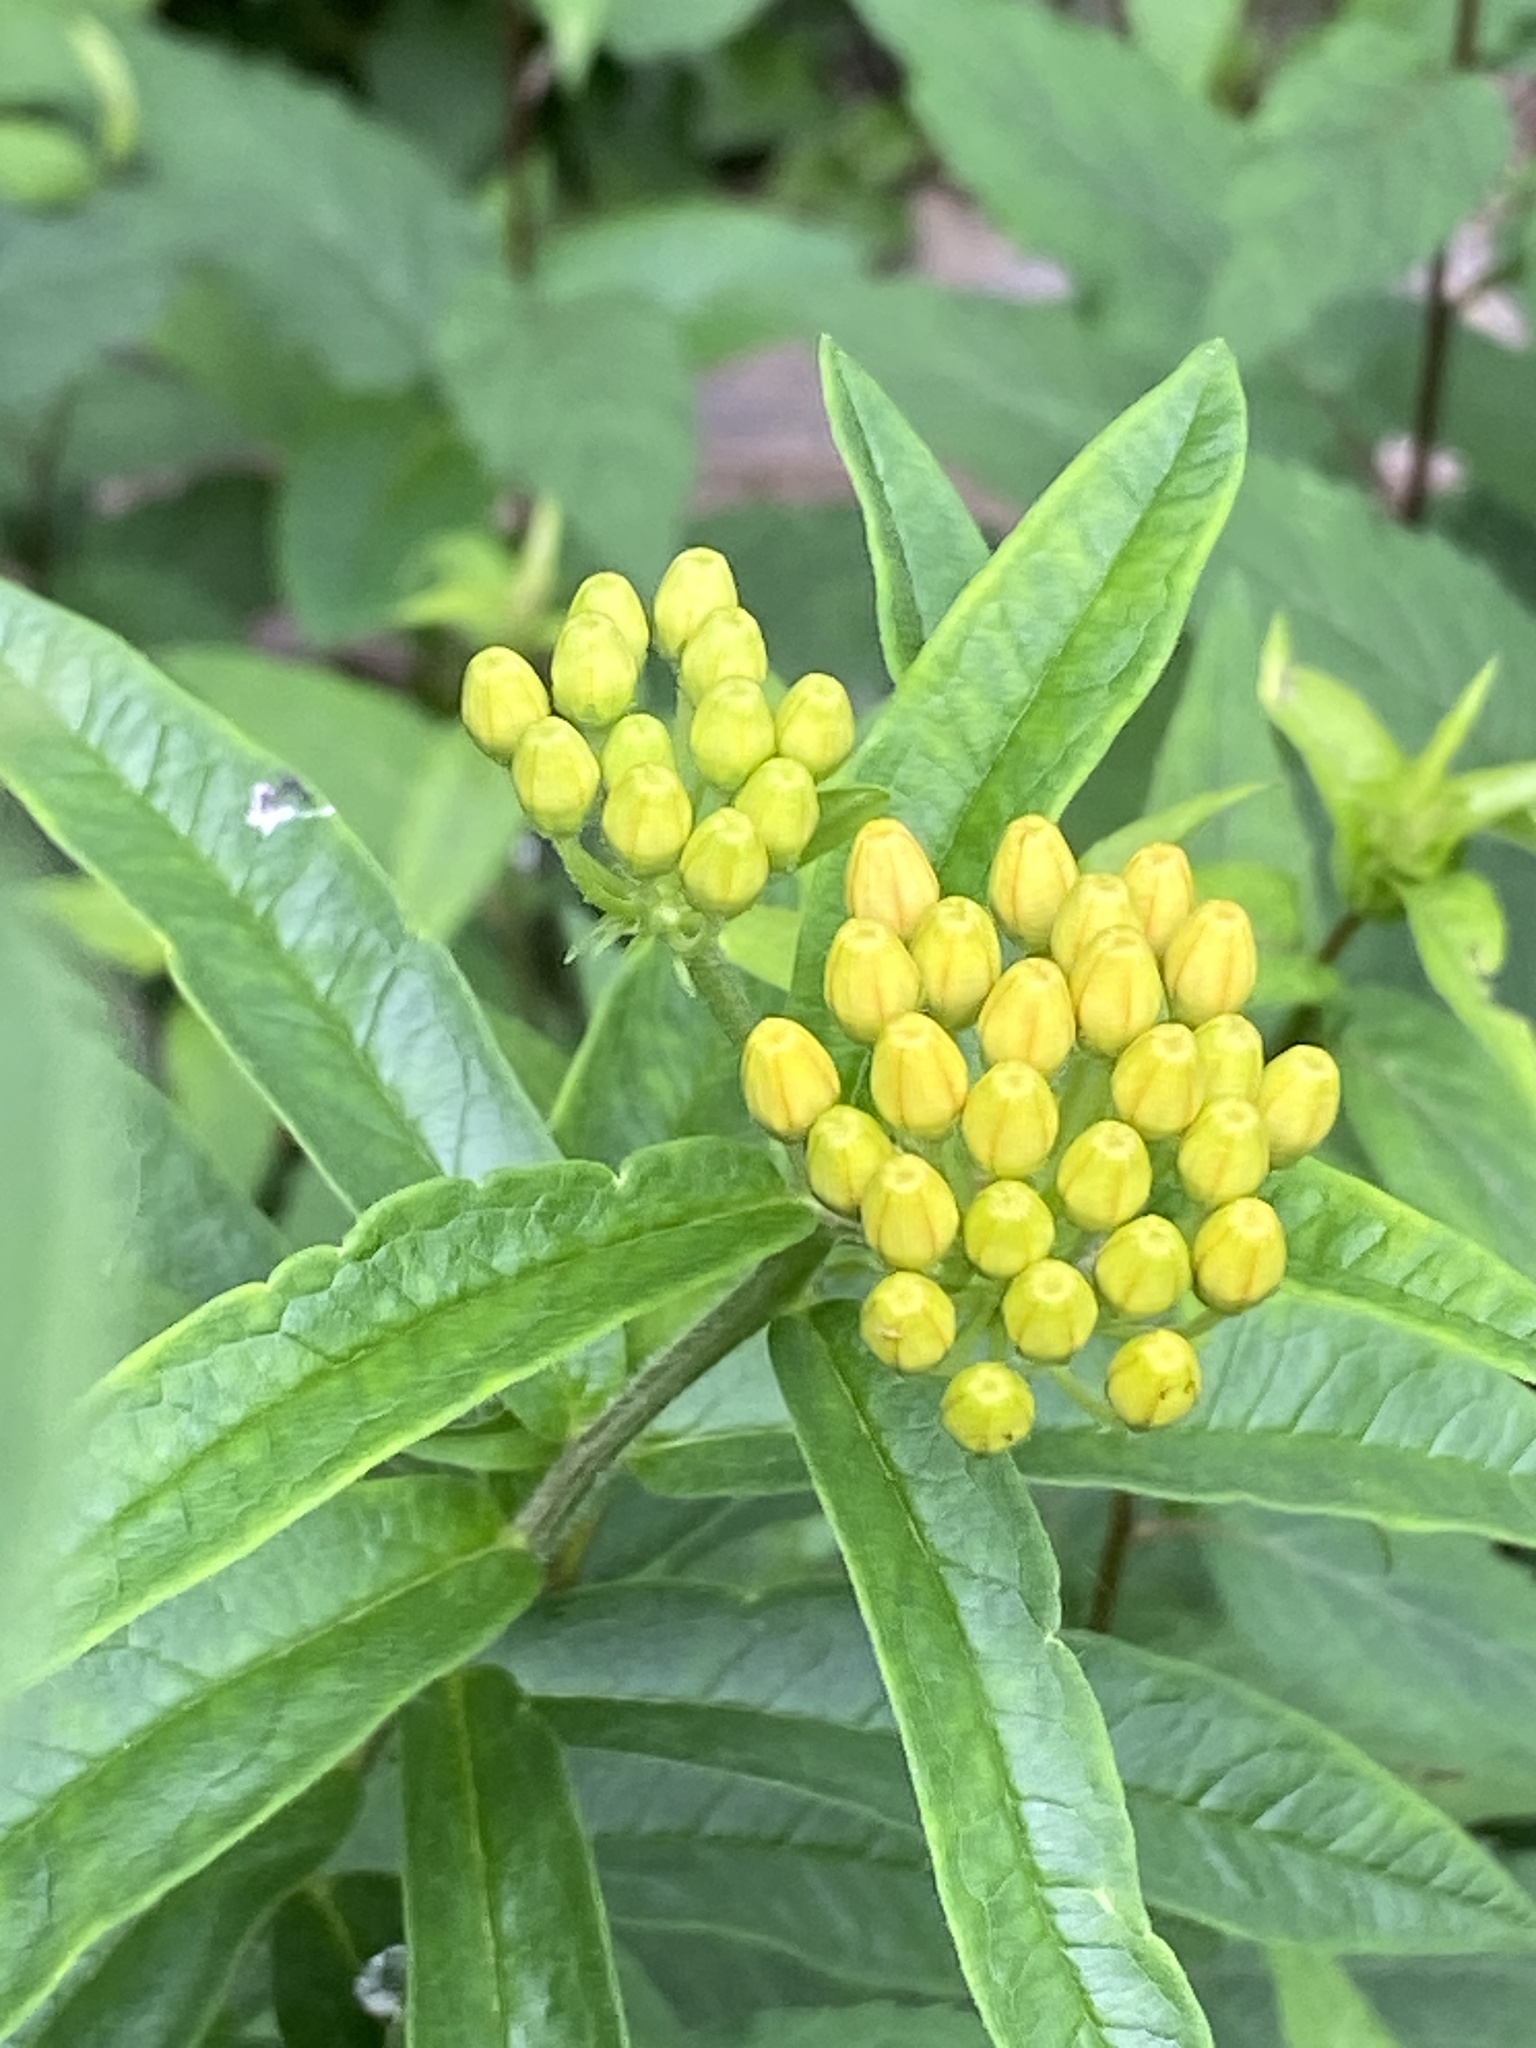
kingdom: Plantae
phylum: Tracheophyta
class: Magnoliopsida
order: Gentianales
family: Apocynaceae
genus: Asclepias
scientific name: Asclepias tuberosa
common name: Butterfly milkweed
